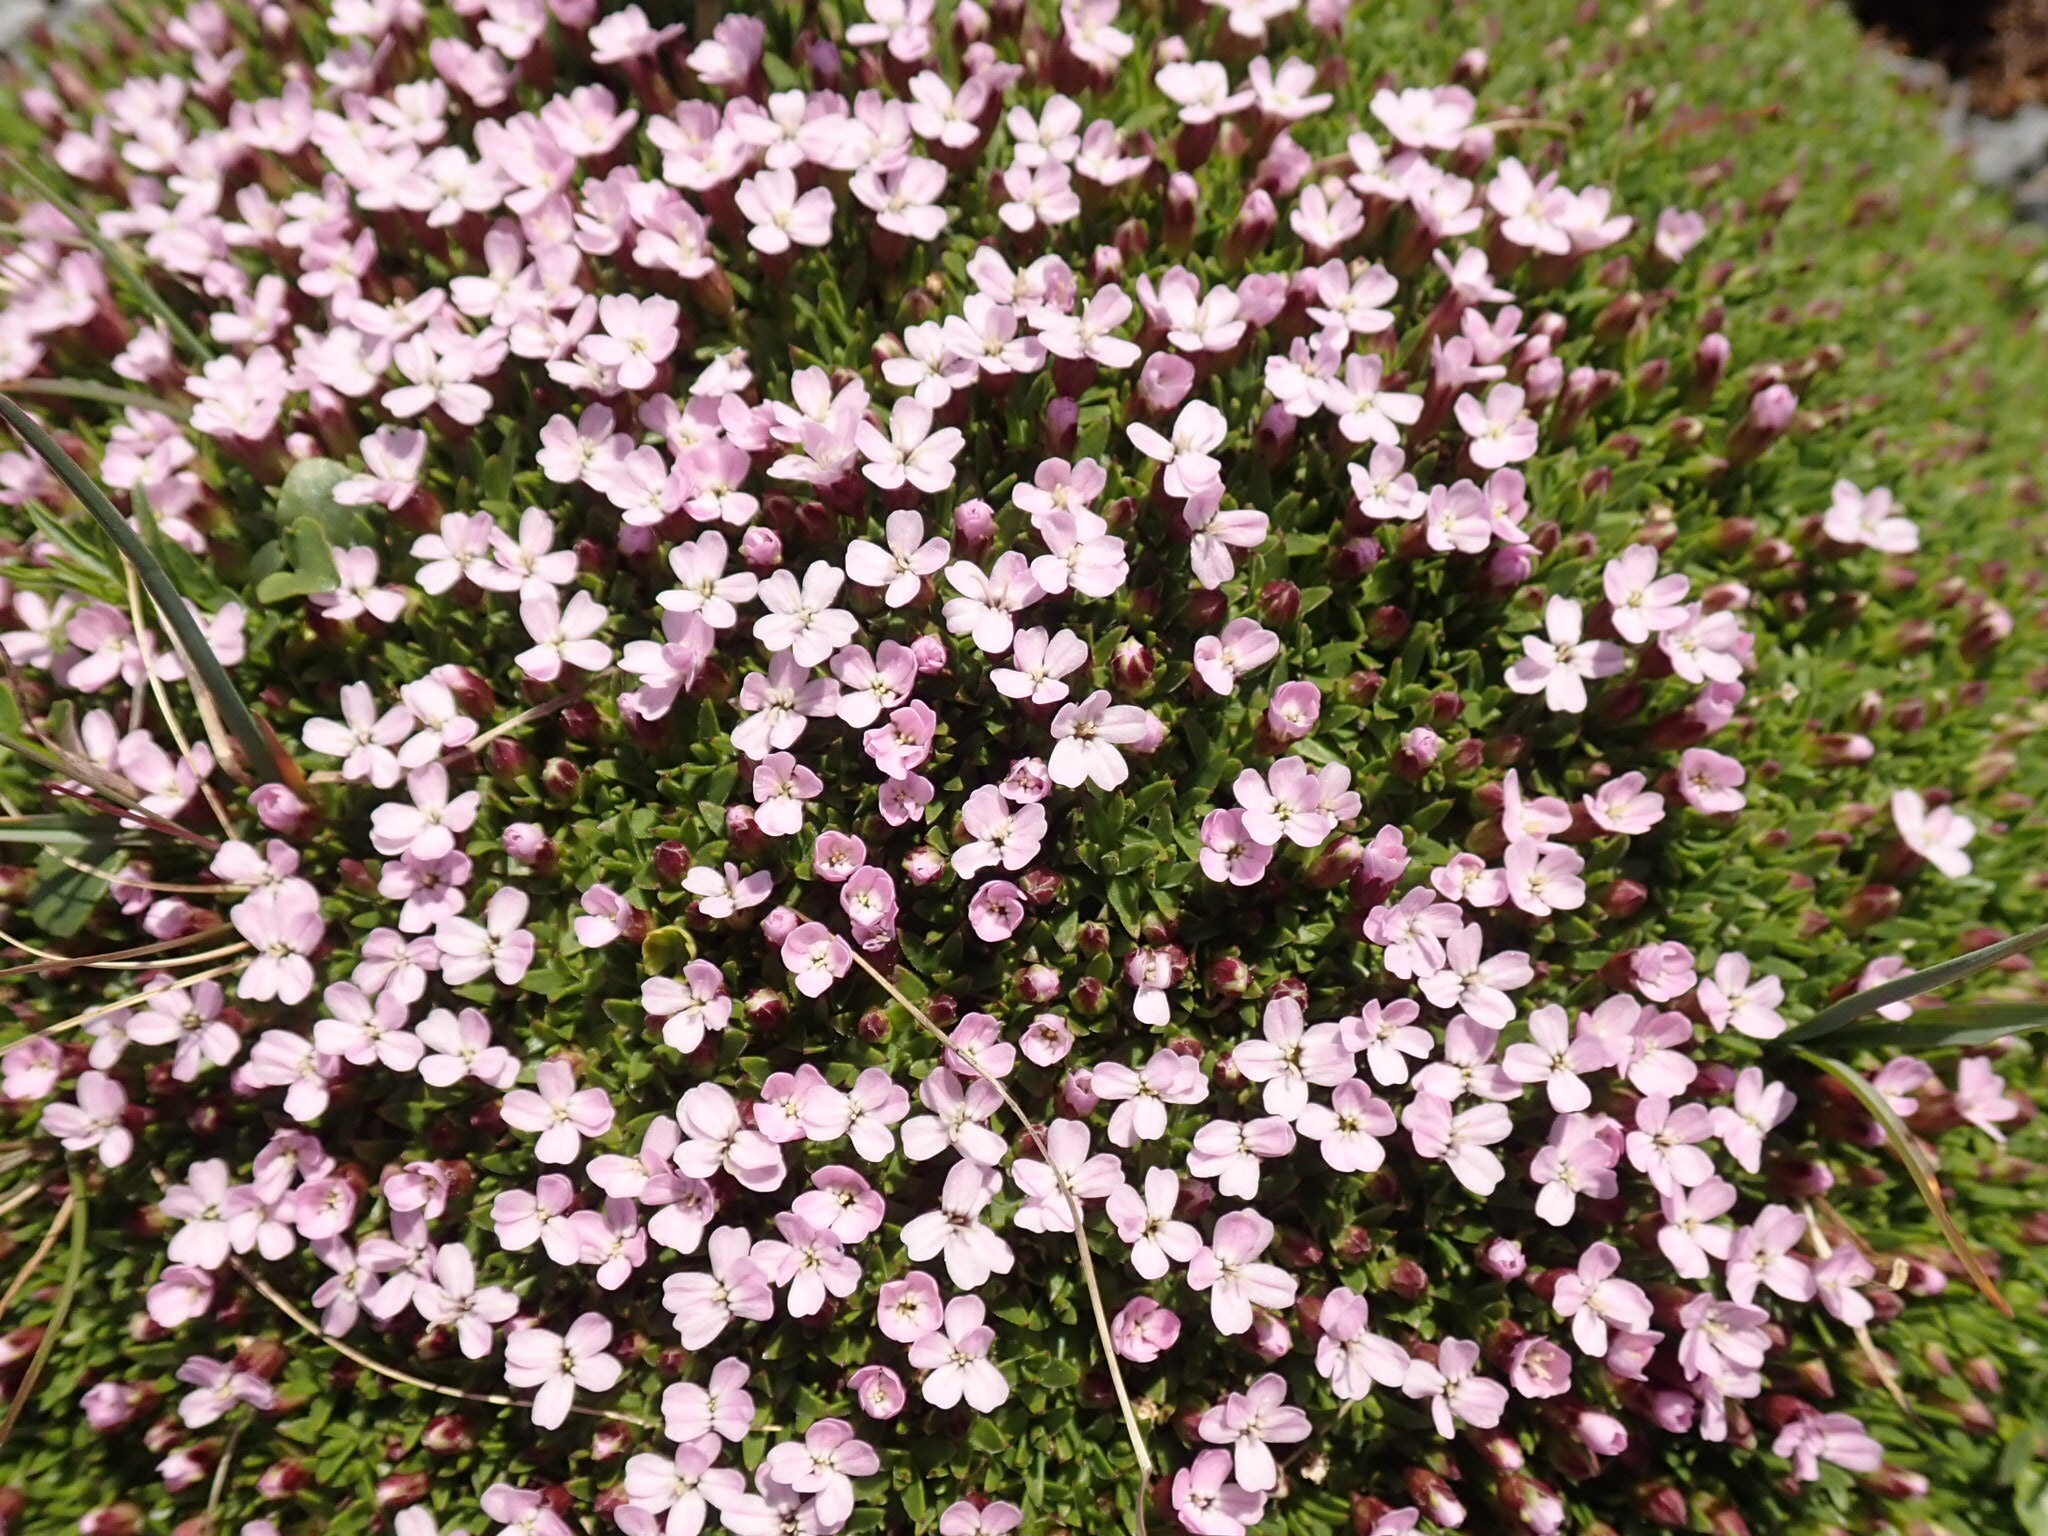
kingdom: Plantae
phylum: Tracheophyta
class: Magnoliopsida
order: Caryophyllales
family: Caryophyllaceae
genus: Silene
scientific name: Silene acaulis
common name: Moss campion
